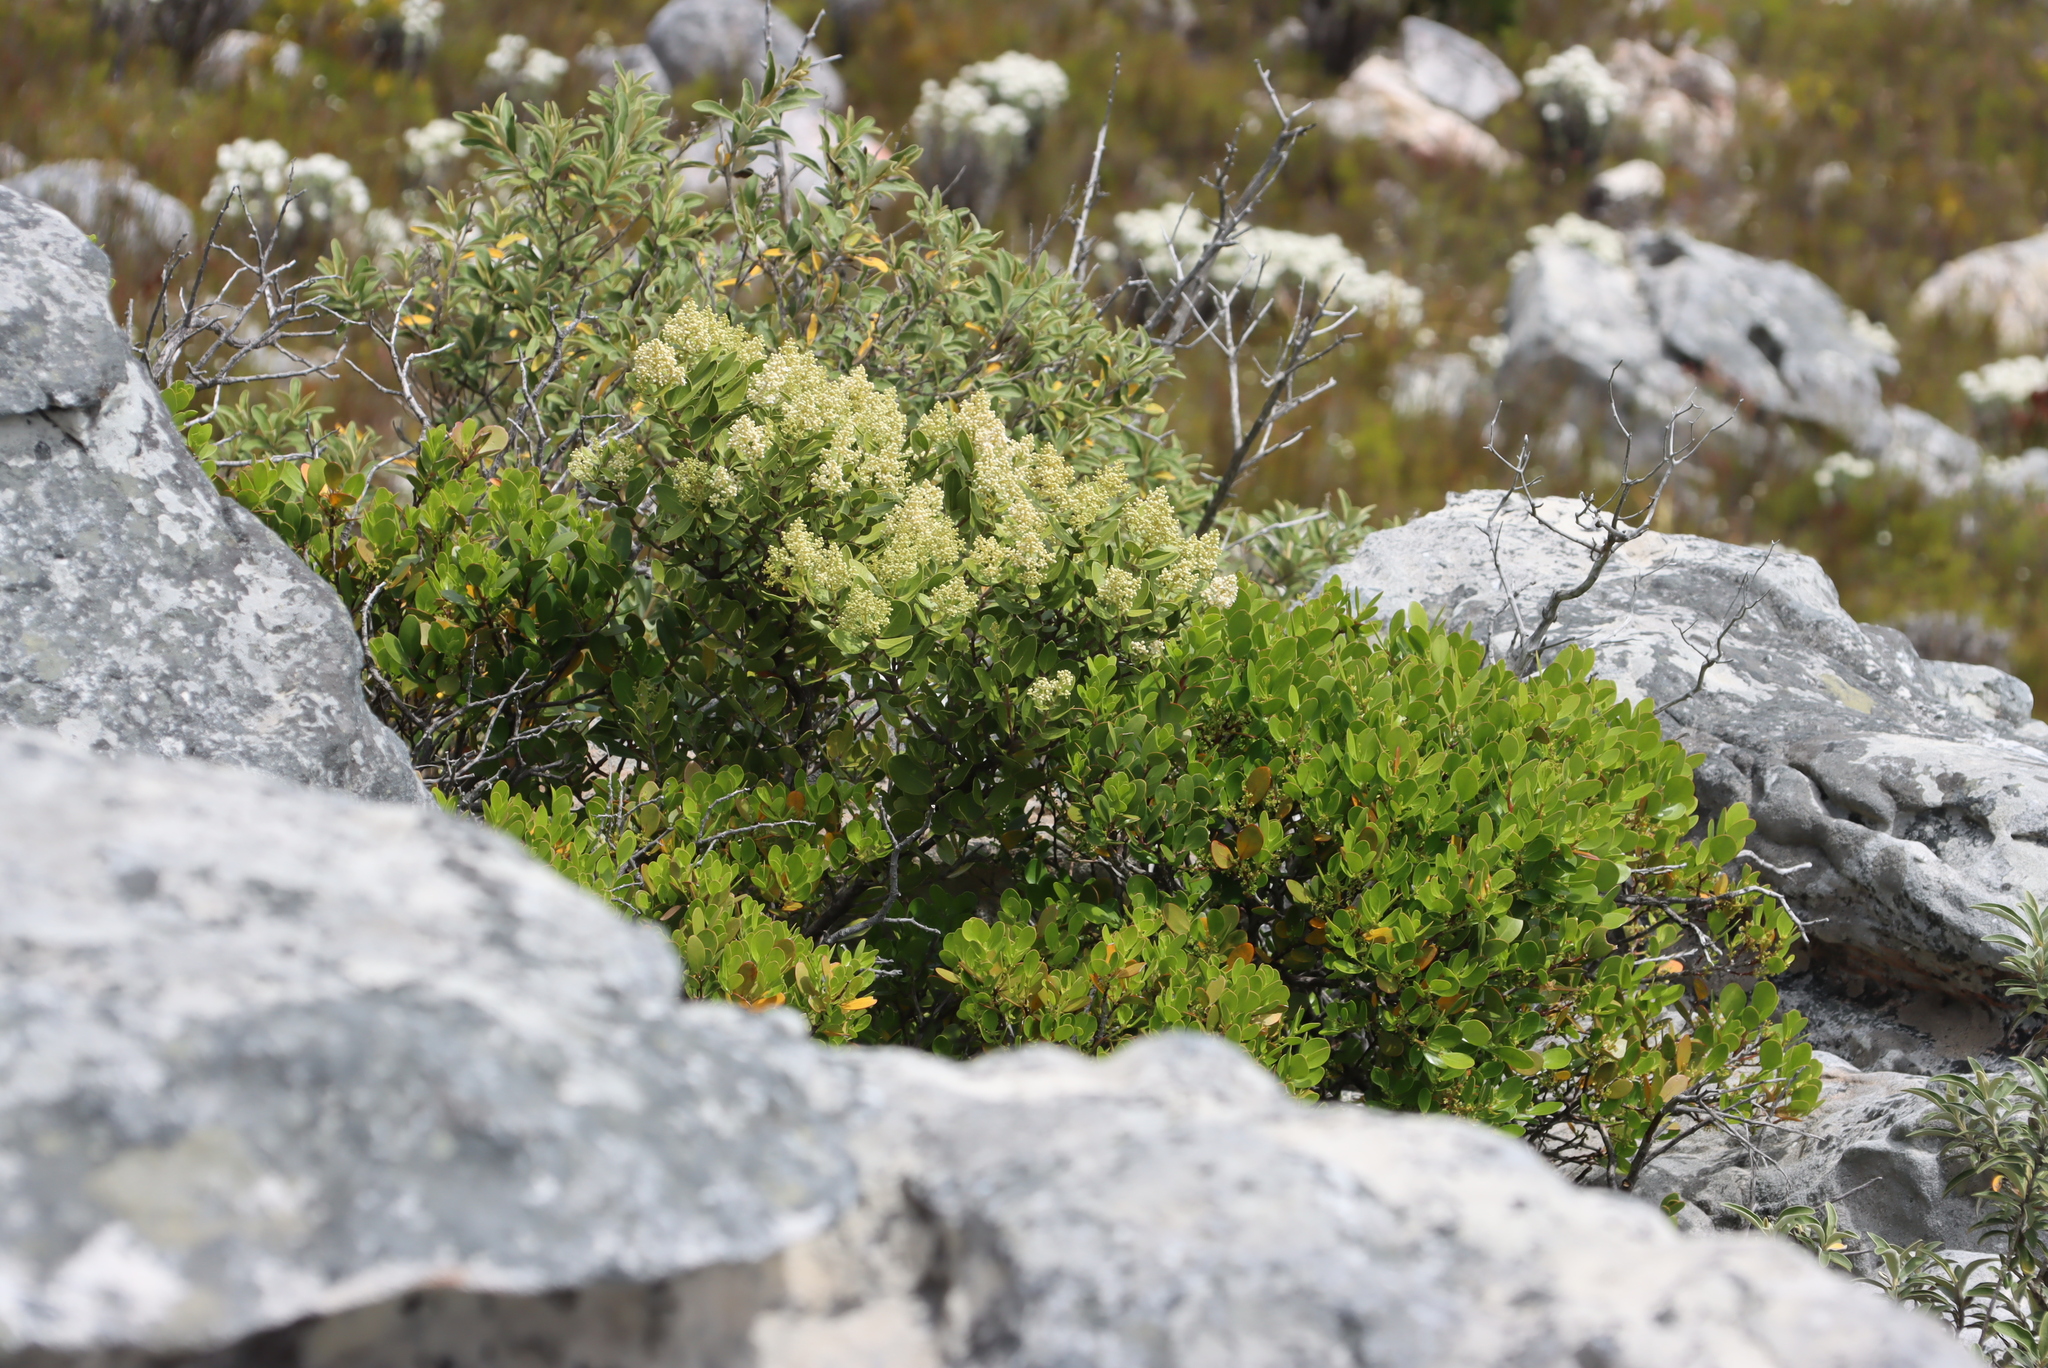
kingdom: Plantae
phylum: Tracheophyta
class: Magnoliopsida
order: Lamiales
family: Oleaceae
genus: Olea
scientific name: Olea capensis
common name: Black ironwood
